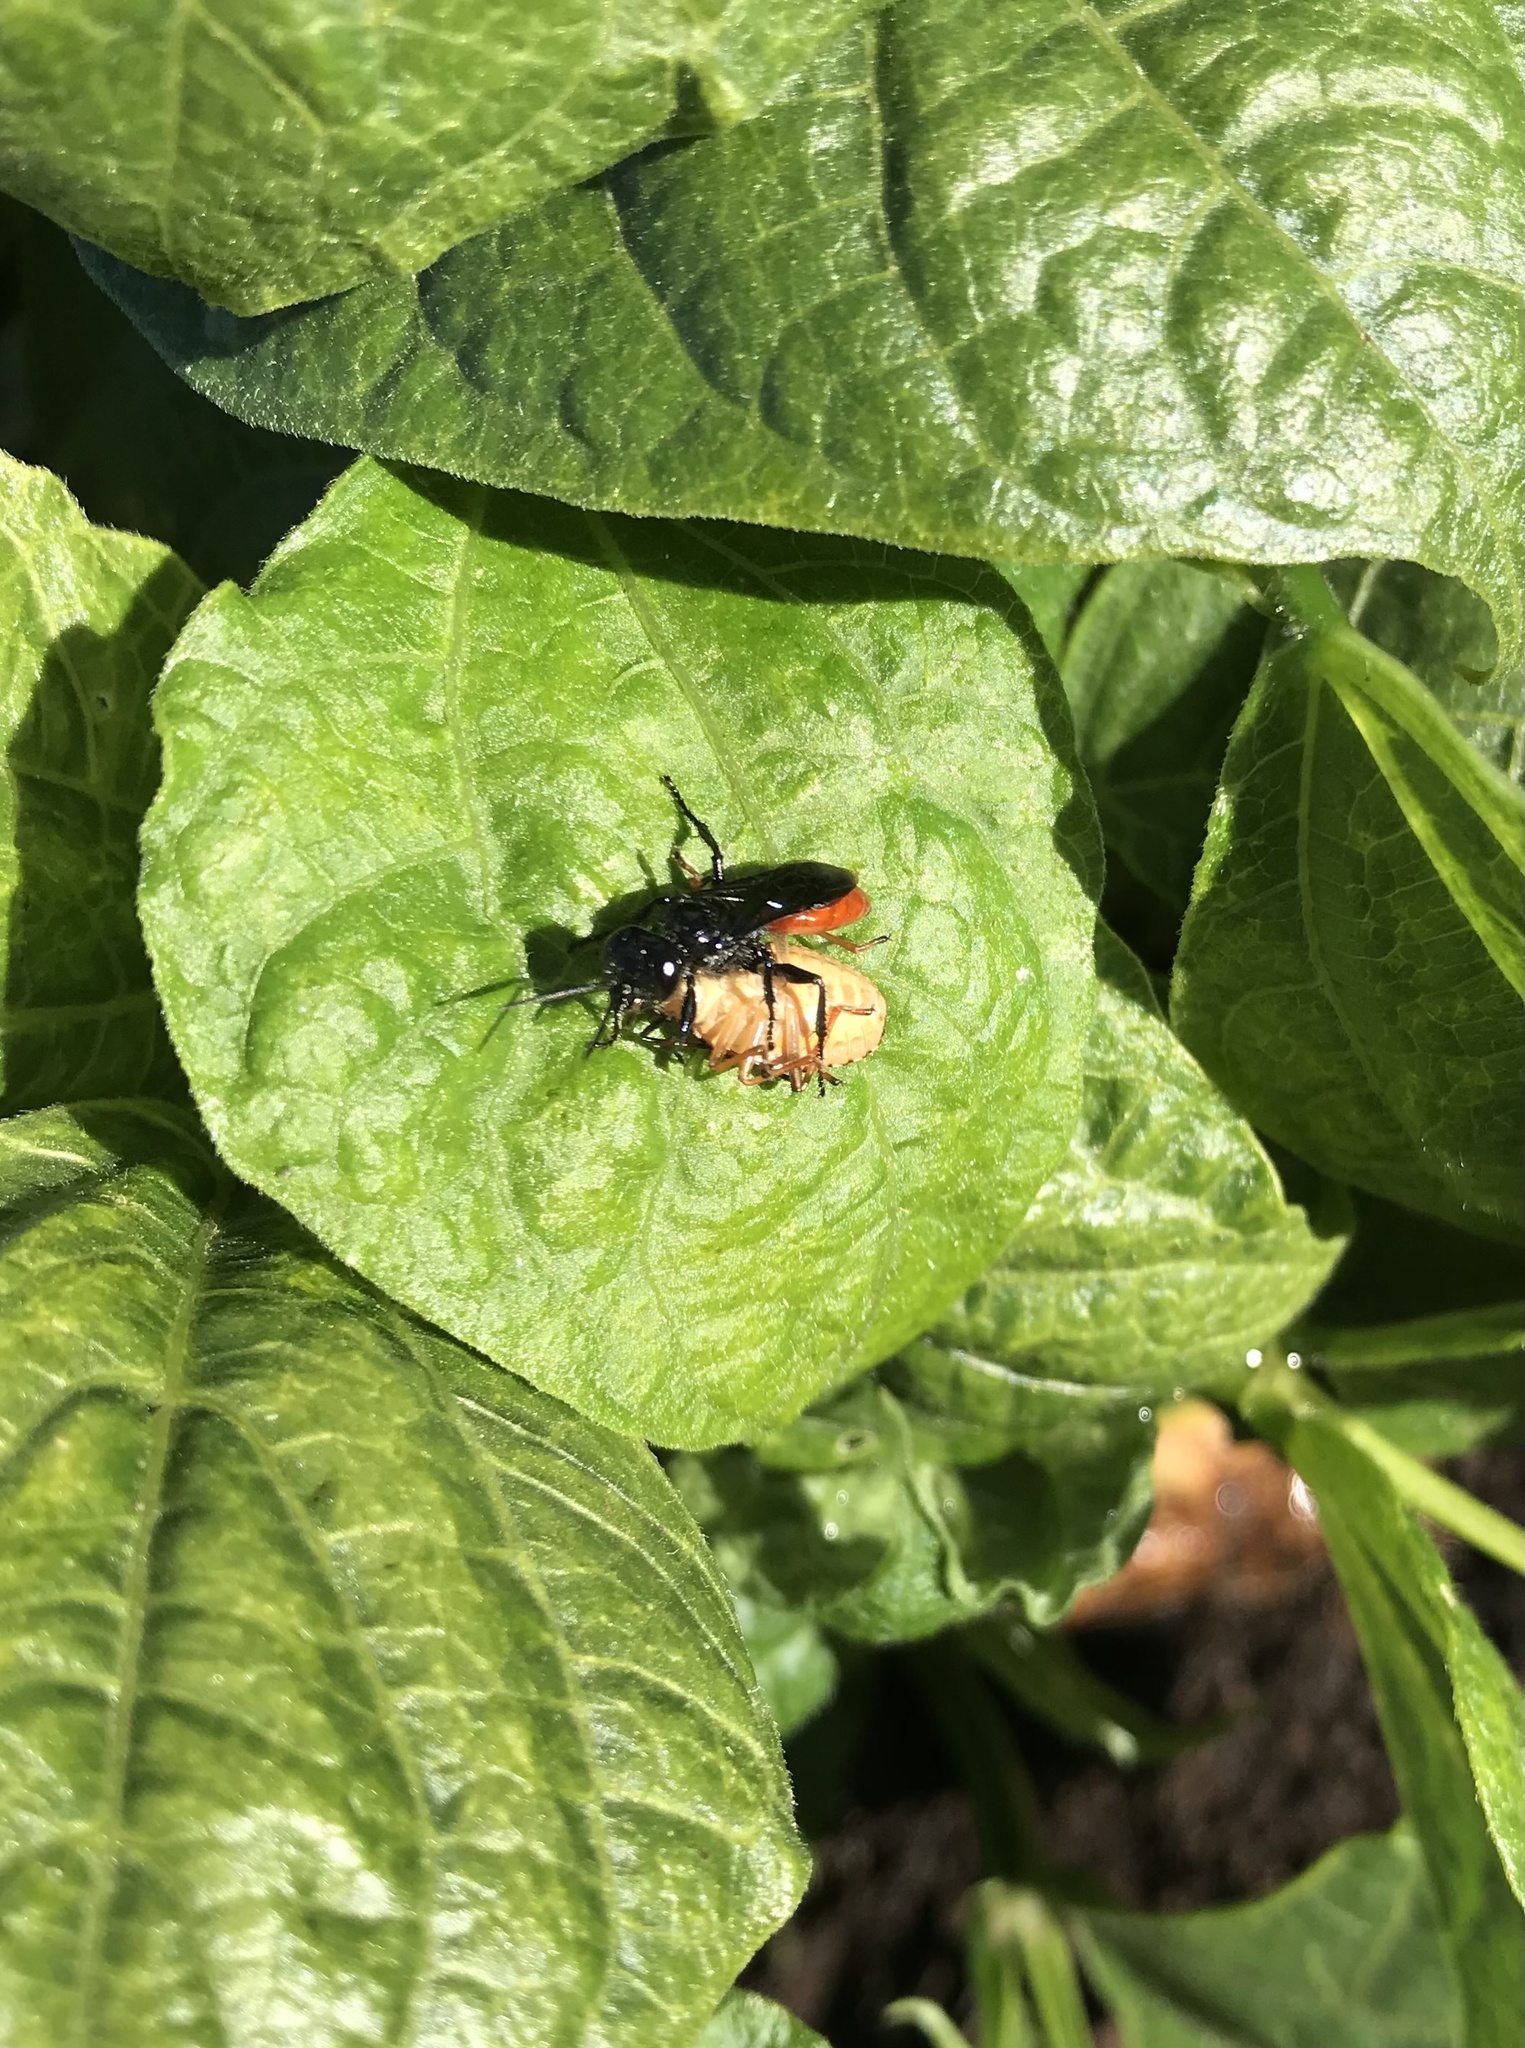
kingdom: Animalia
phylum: Arthropoda
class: Insecta
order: Hymenoptera
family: Crabronidae
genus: Astata
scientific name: Astata australasiae
